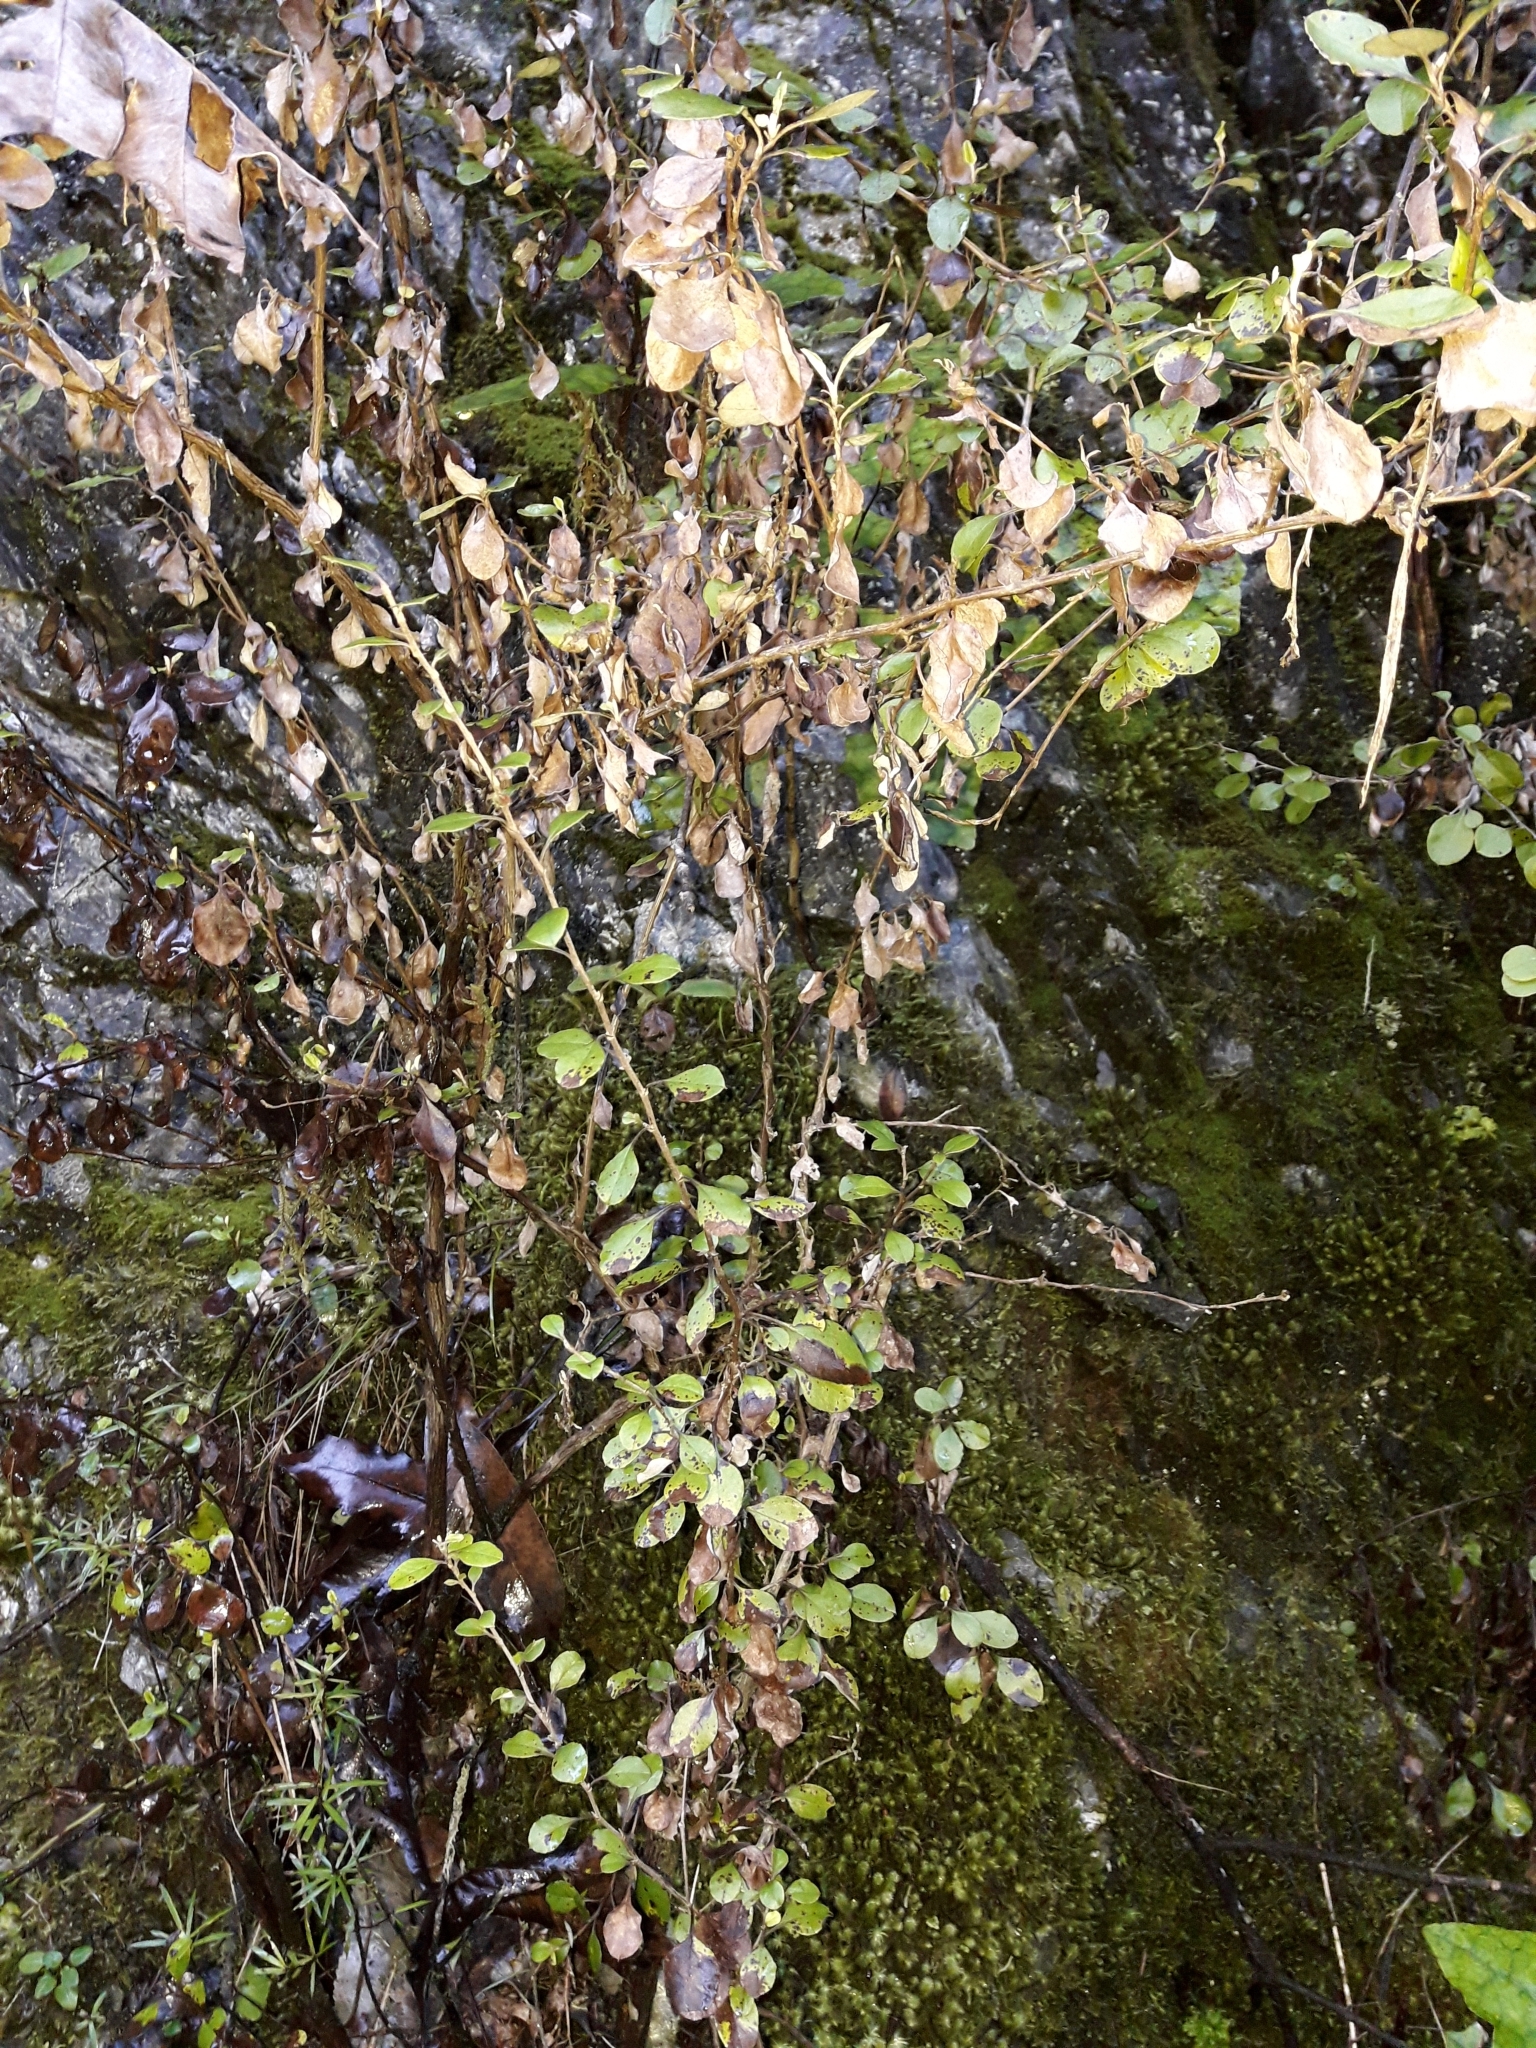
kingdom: Plantae
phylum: Tracheophyta
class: Magnoliopsida
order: Asterales
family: Asteraceae
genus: Ozothamnus
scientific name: Ozothamnus glomeratus
